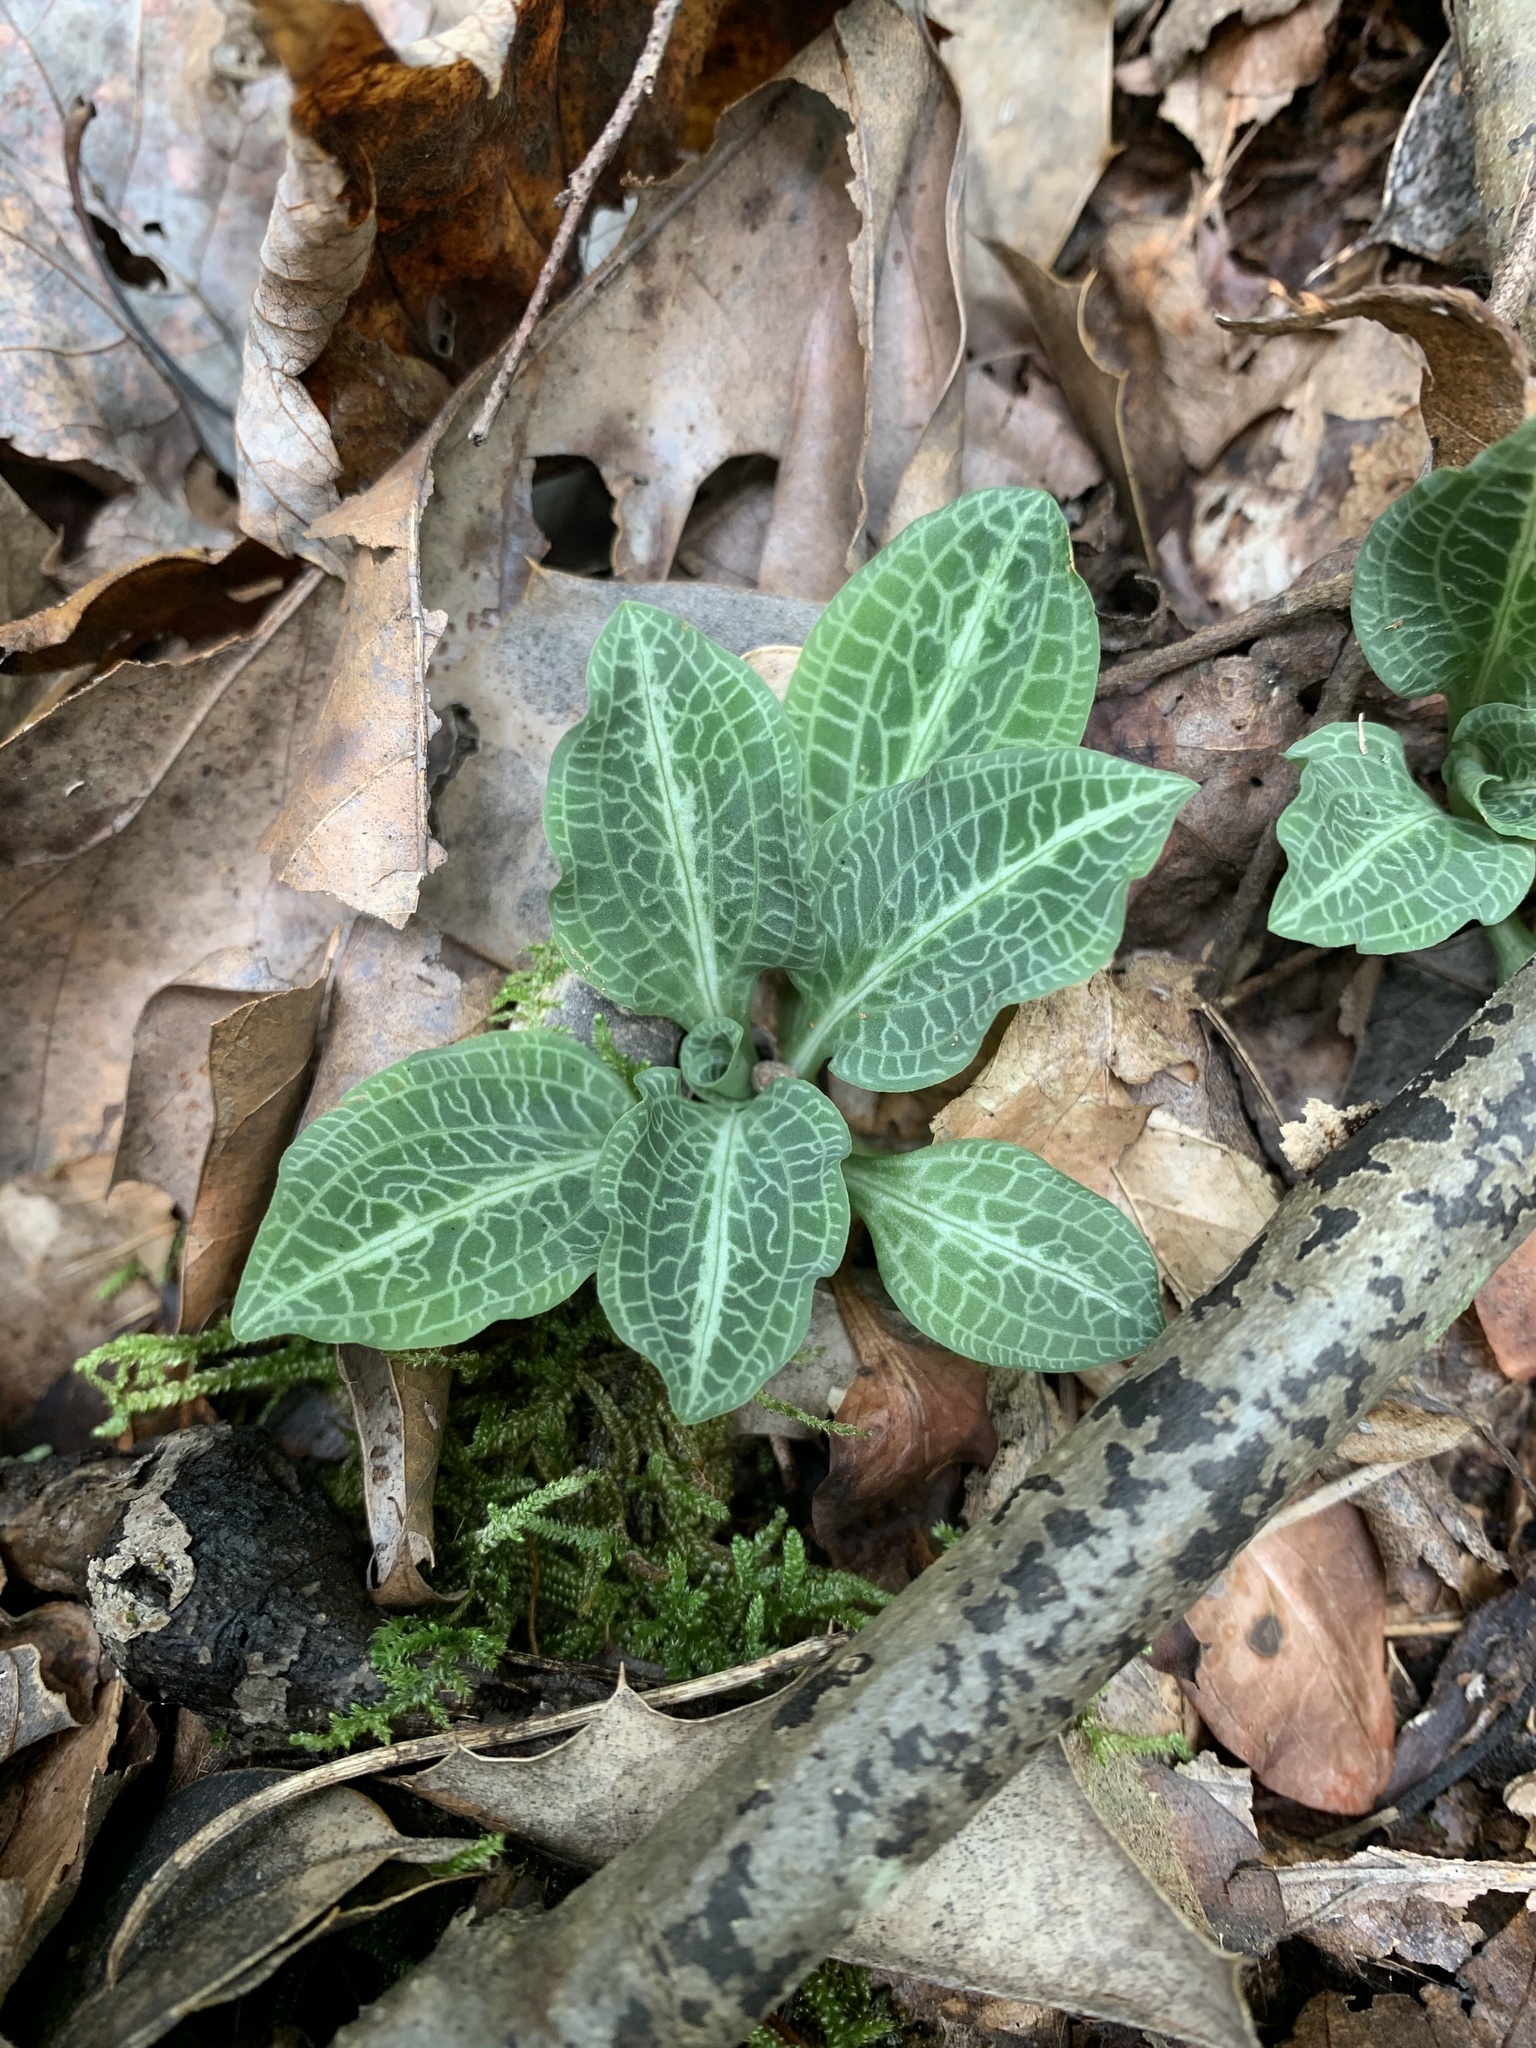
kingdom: Plantae
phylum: Tracheophyta
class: Liliopsida
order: Asparagales
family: Orchidaceae
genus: Goodyera
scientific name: Goodyera pubescens
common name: Downy rattlesnake-plantain
